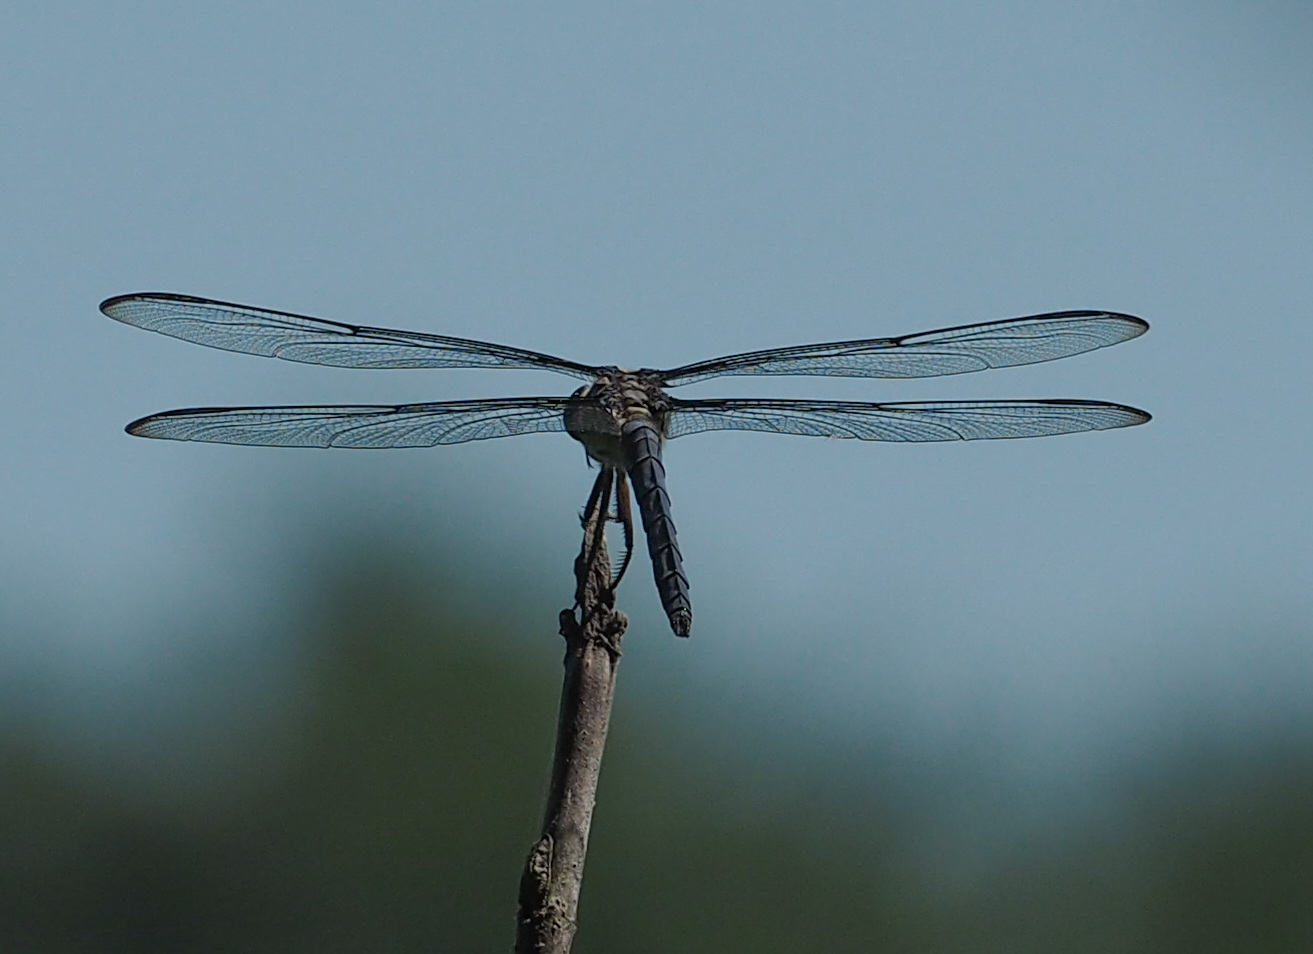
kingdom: Animalia
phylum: Arthropoda
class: Insecta
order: Odonata
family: Libellulidae
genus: Libellula
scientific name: Libellula incesta
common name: Slaty skimmer
